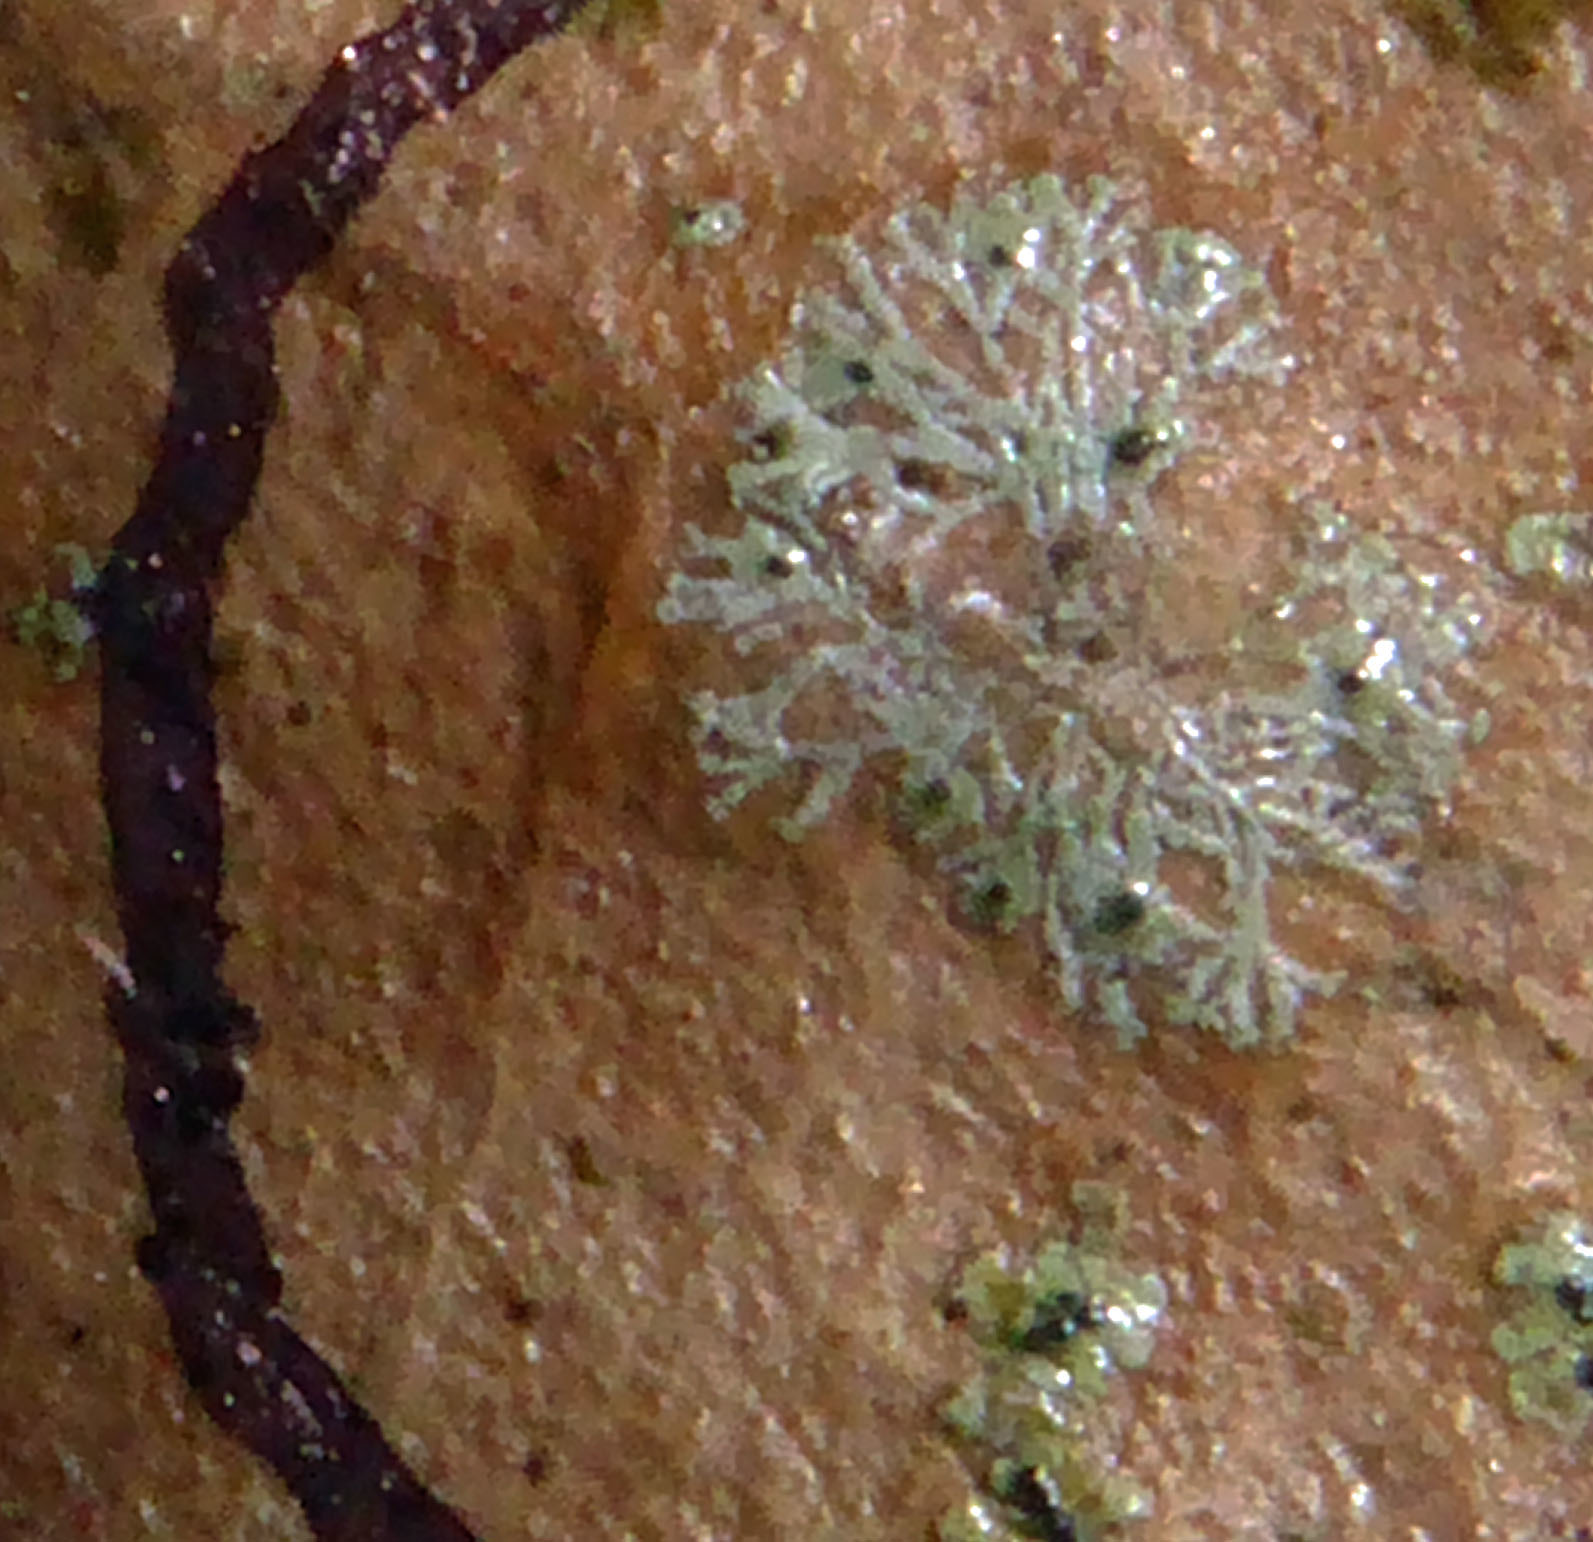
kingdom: Fungi
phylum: Ascomycota
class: Dothideomycetes
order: Strigulales
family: Strigulaceae
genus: Puiggariella
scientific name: Puiggariella nemathora
